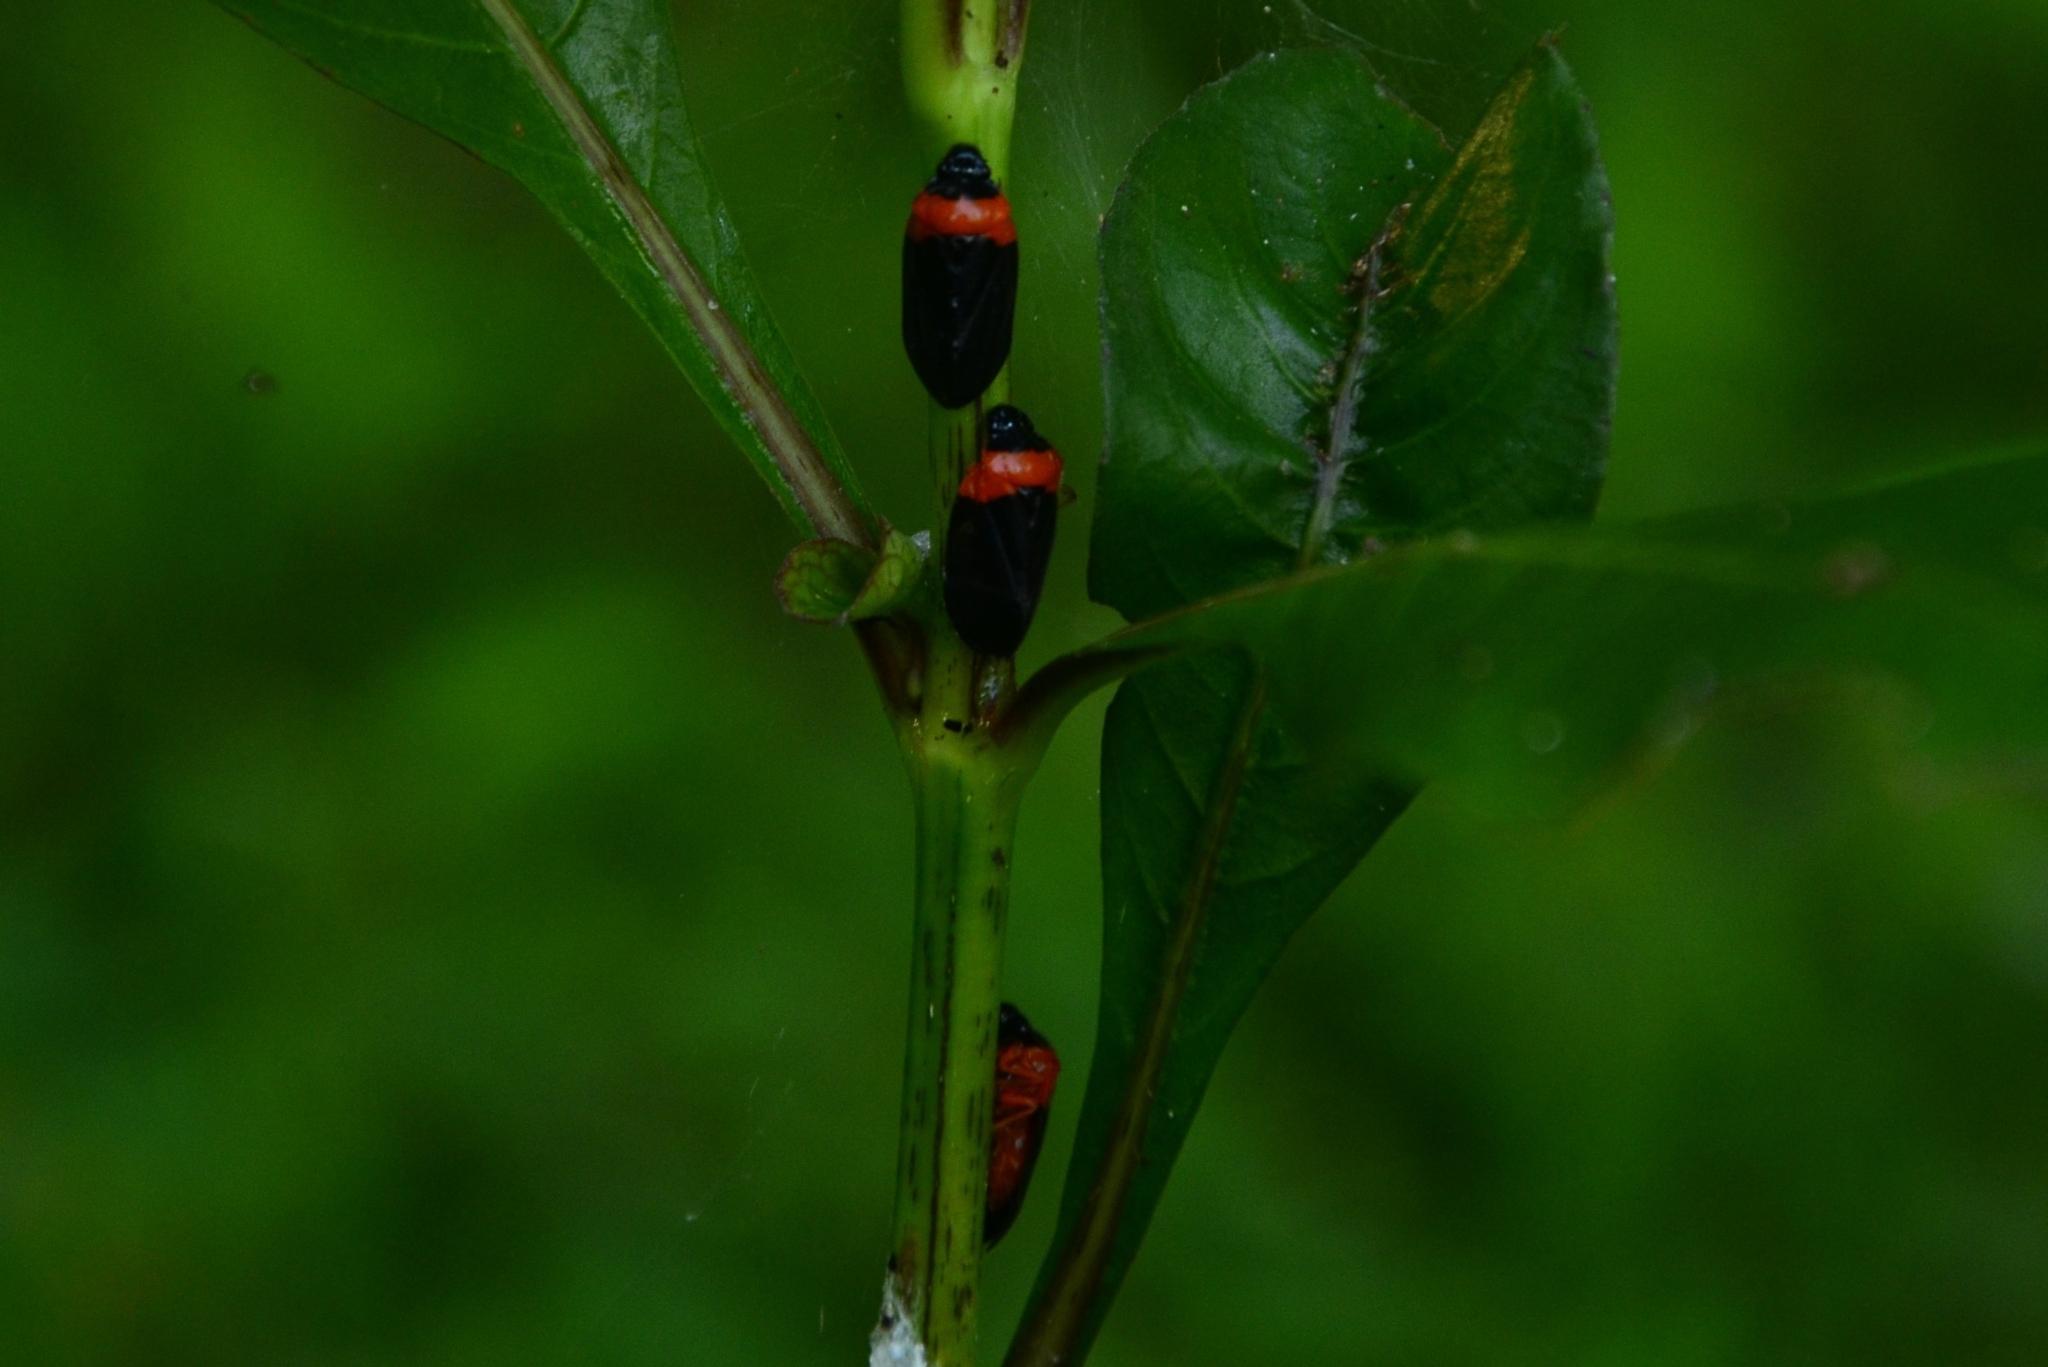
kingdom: Animalia
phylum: Arthropoda
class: Insecta
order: Hemiptera
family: Cercopidae
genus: Phymatostetha
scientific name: Phymatostetha deschampsi
